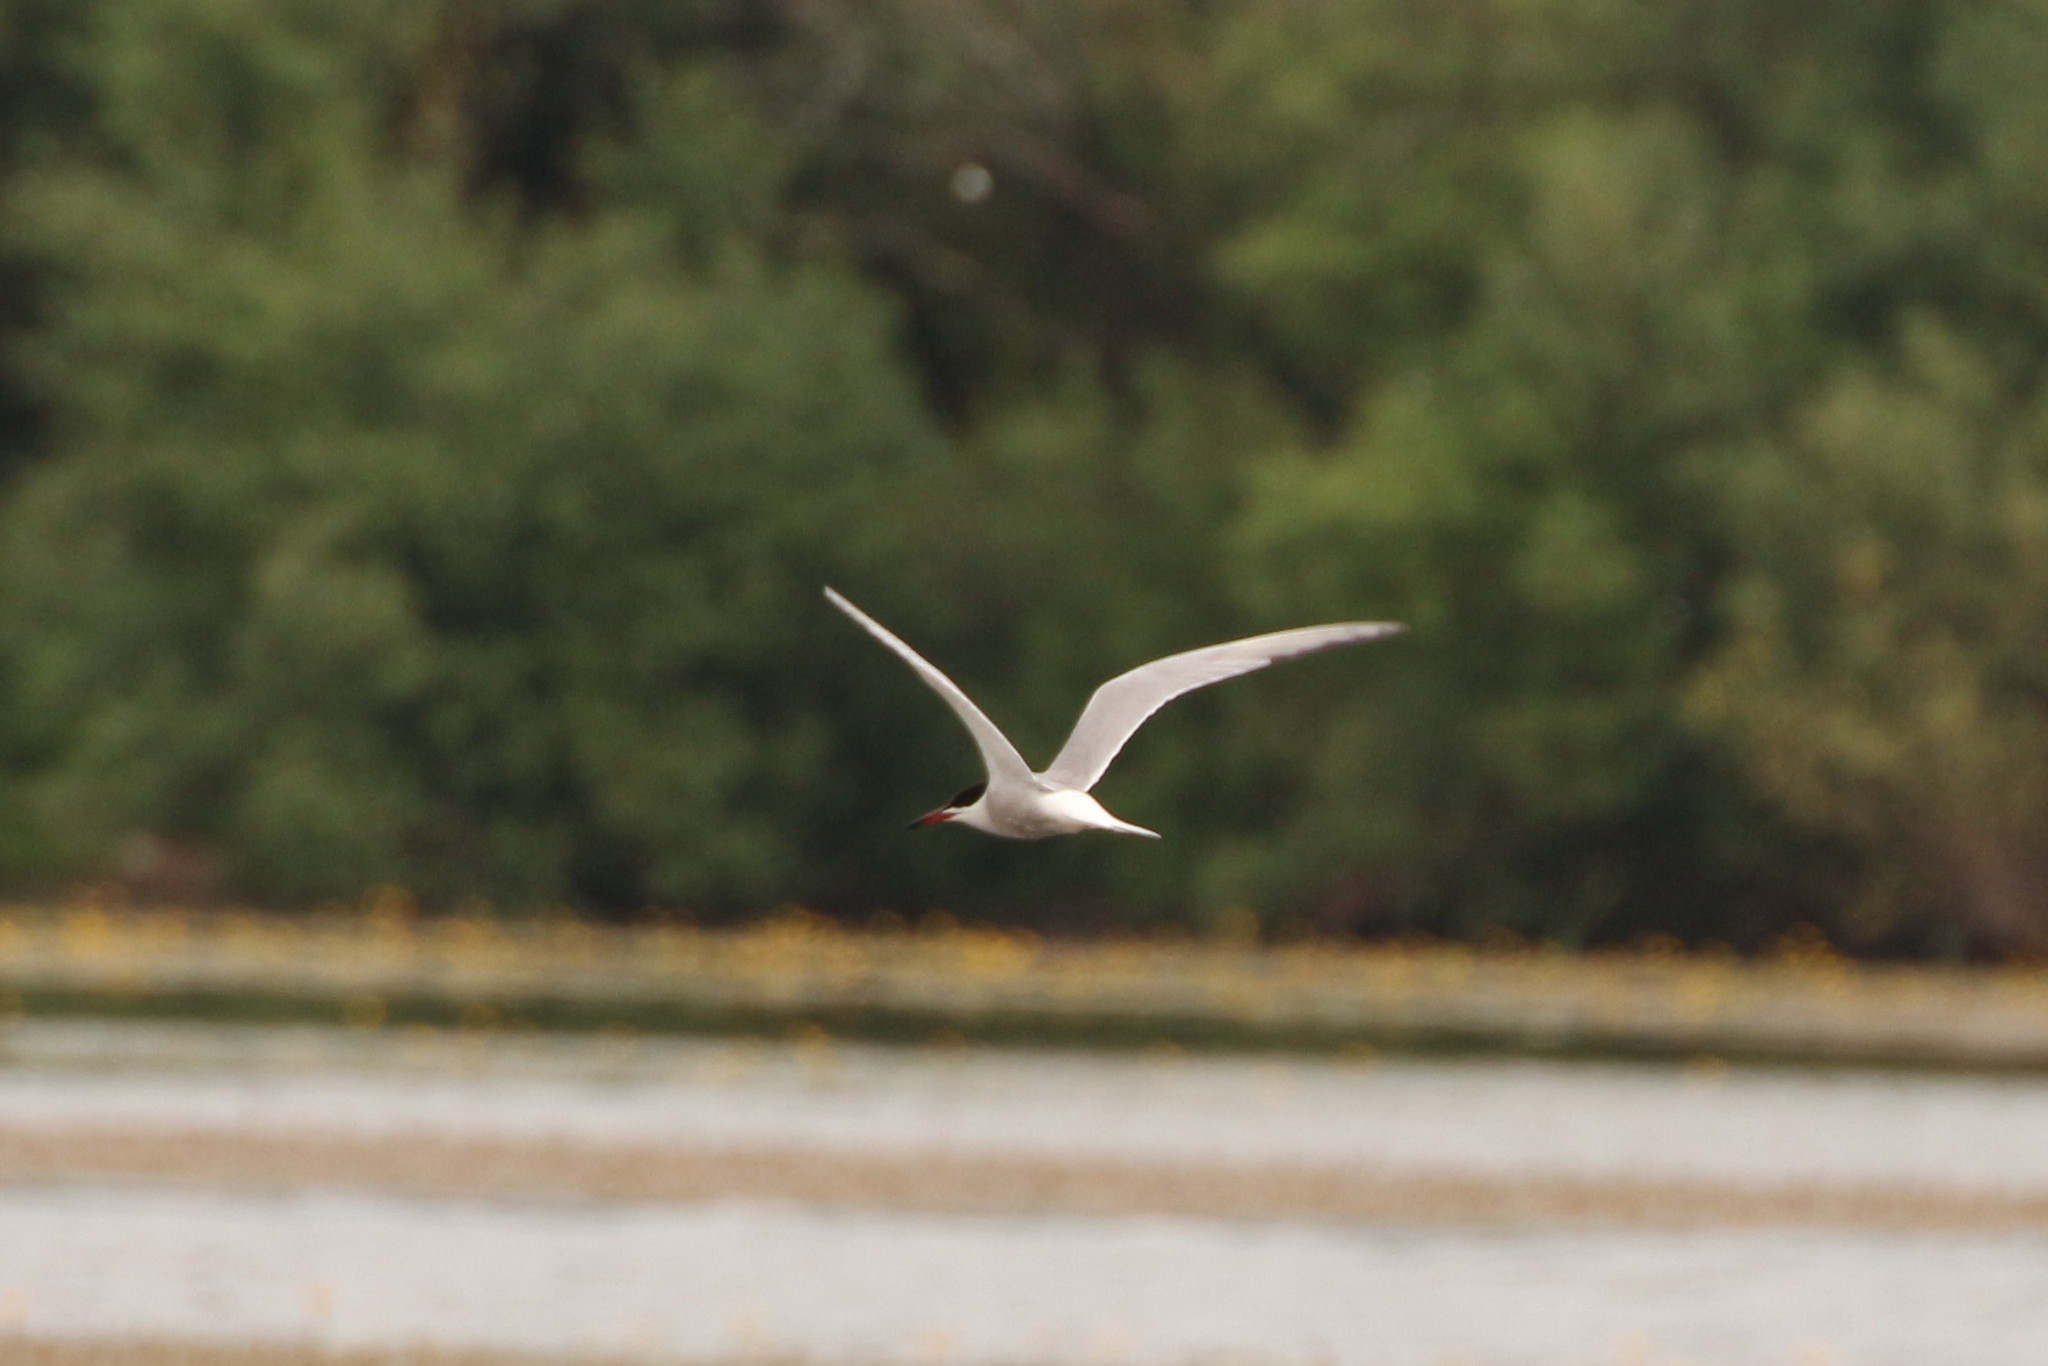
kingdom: Animalia
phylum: Chordata
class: Aves
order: Charadriiformes
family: Laridae
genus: Sterna
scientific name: Sterna hirundo
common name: Common tern
